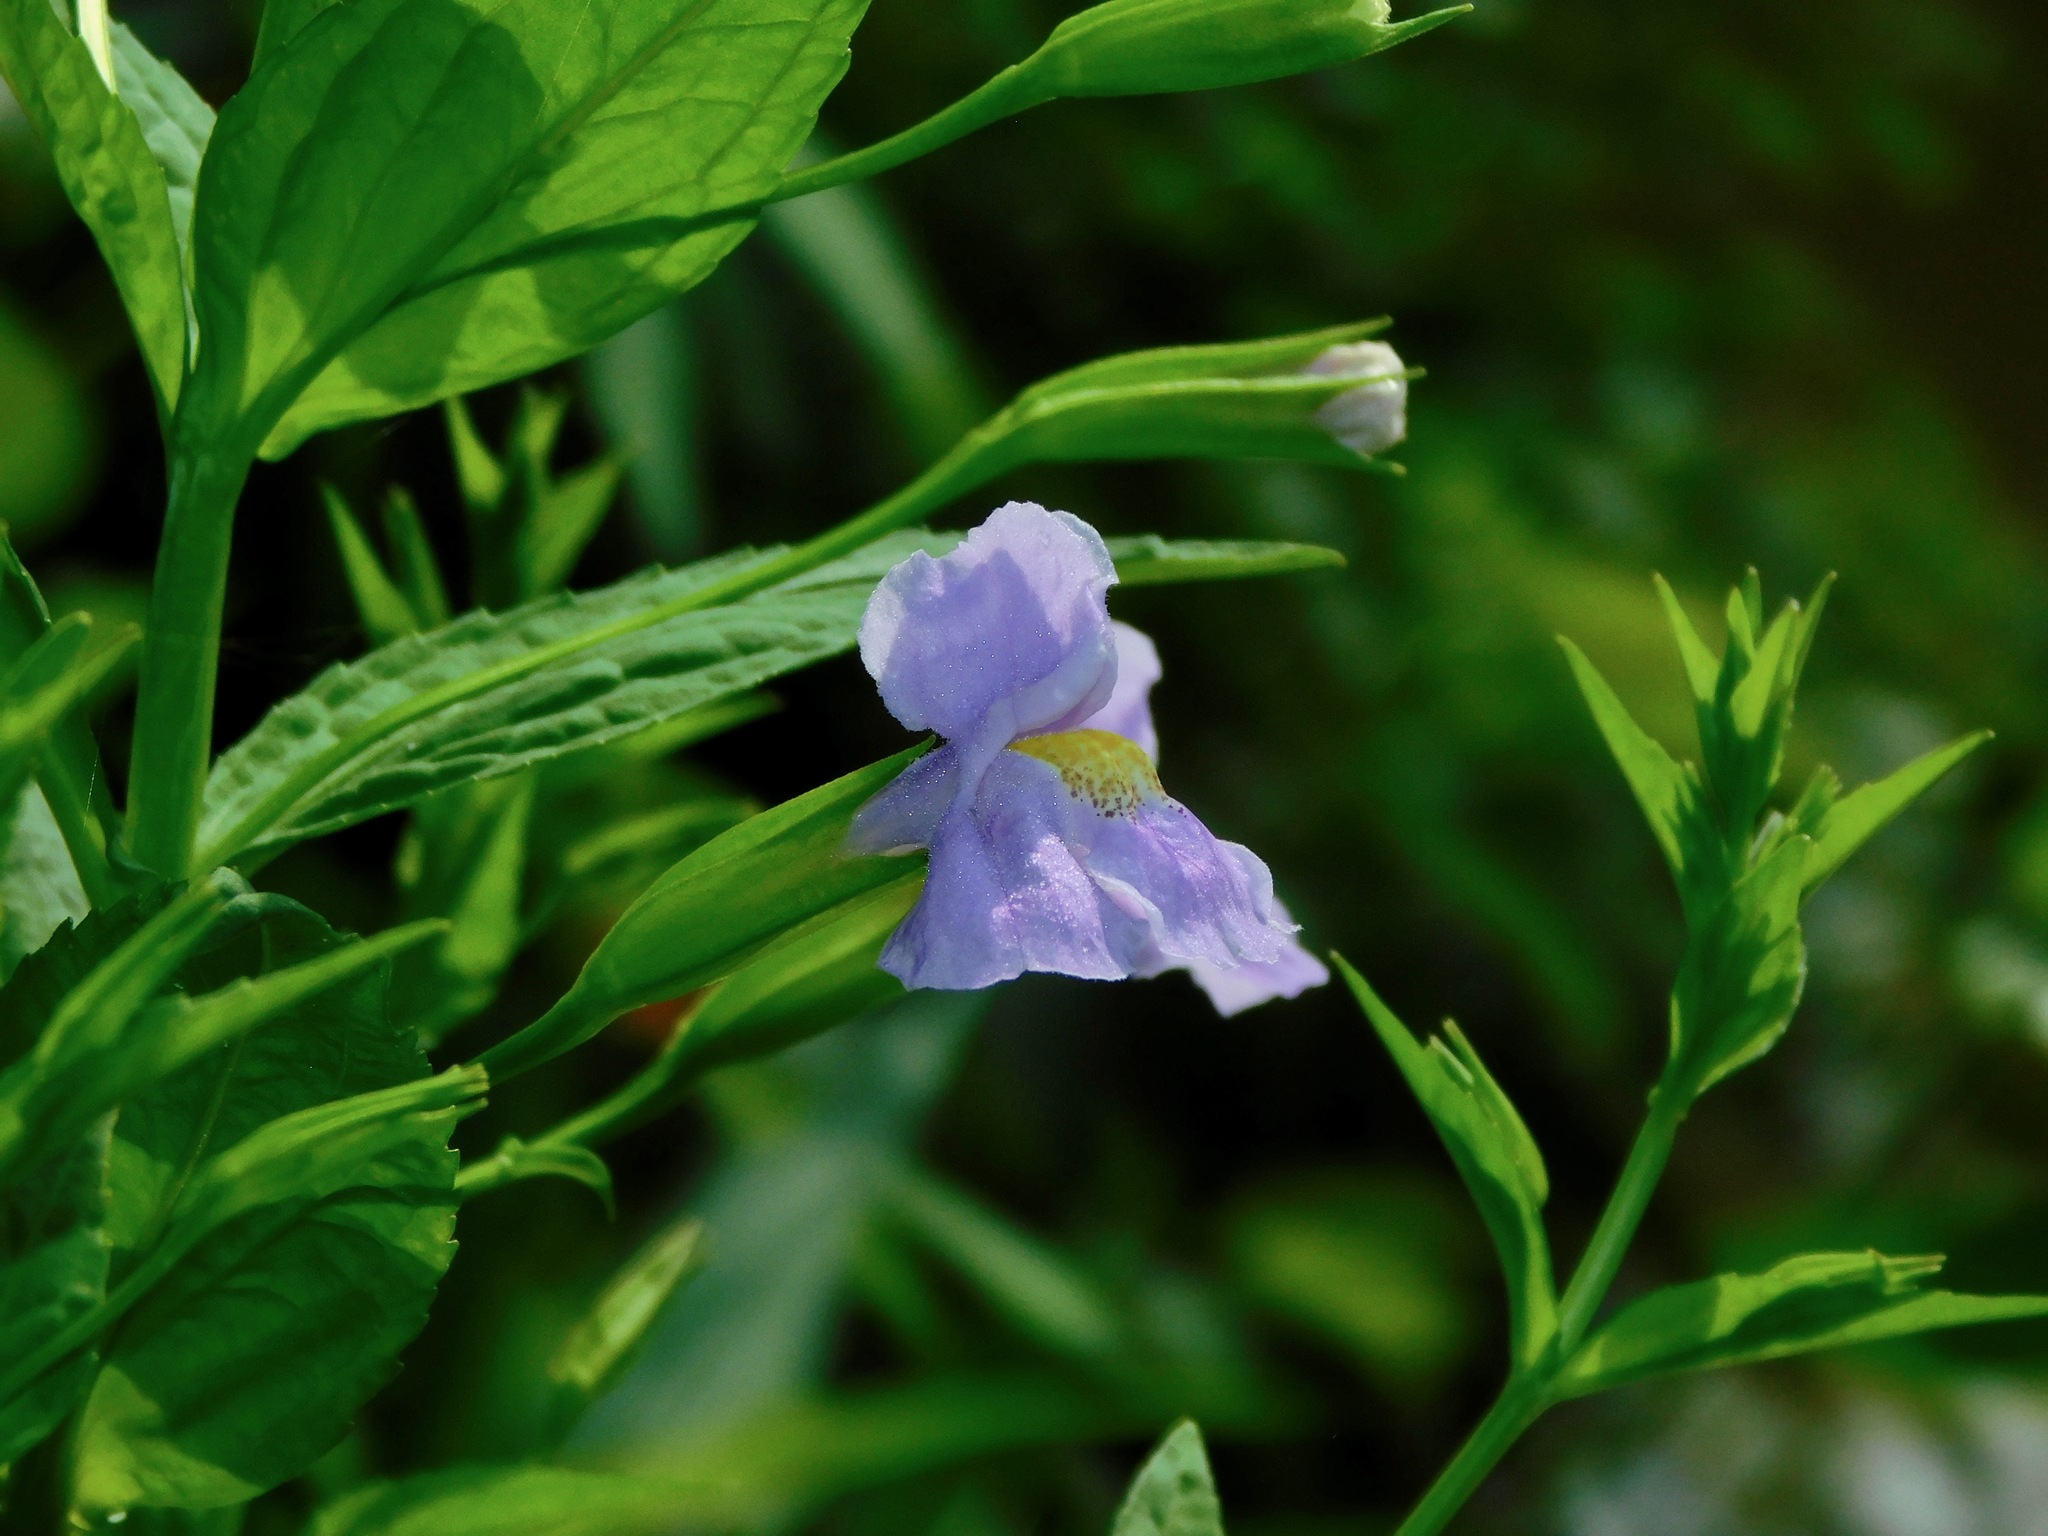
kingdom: Plantae
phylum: Tracheophyta
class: Magnoliopsida
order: Lamiales
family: Phrymaceae
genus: Mimulus
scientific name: Mimulus ringens
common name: Allegheny monkeyflower
